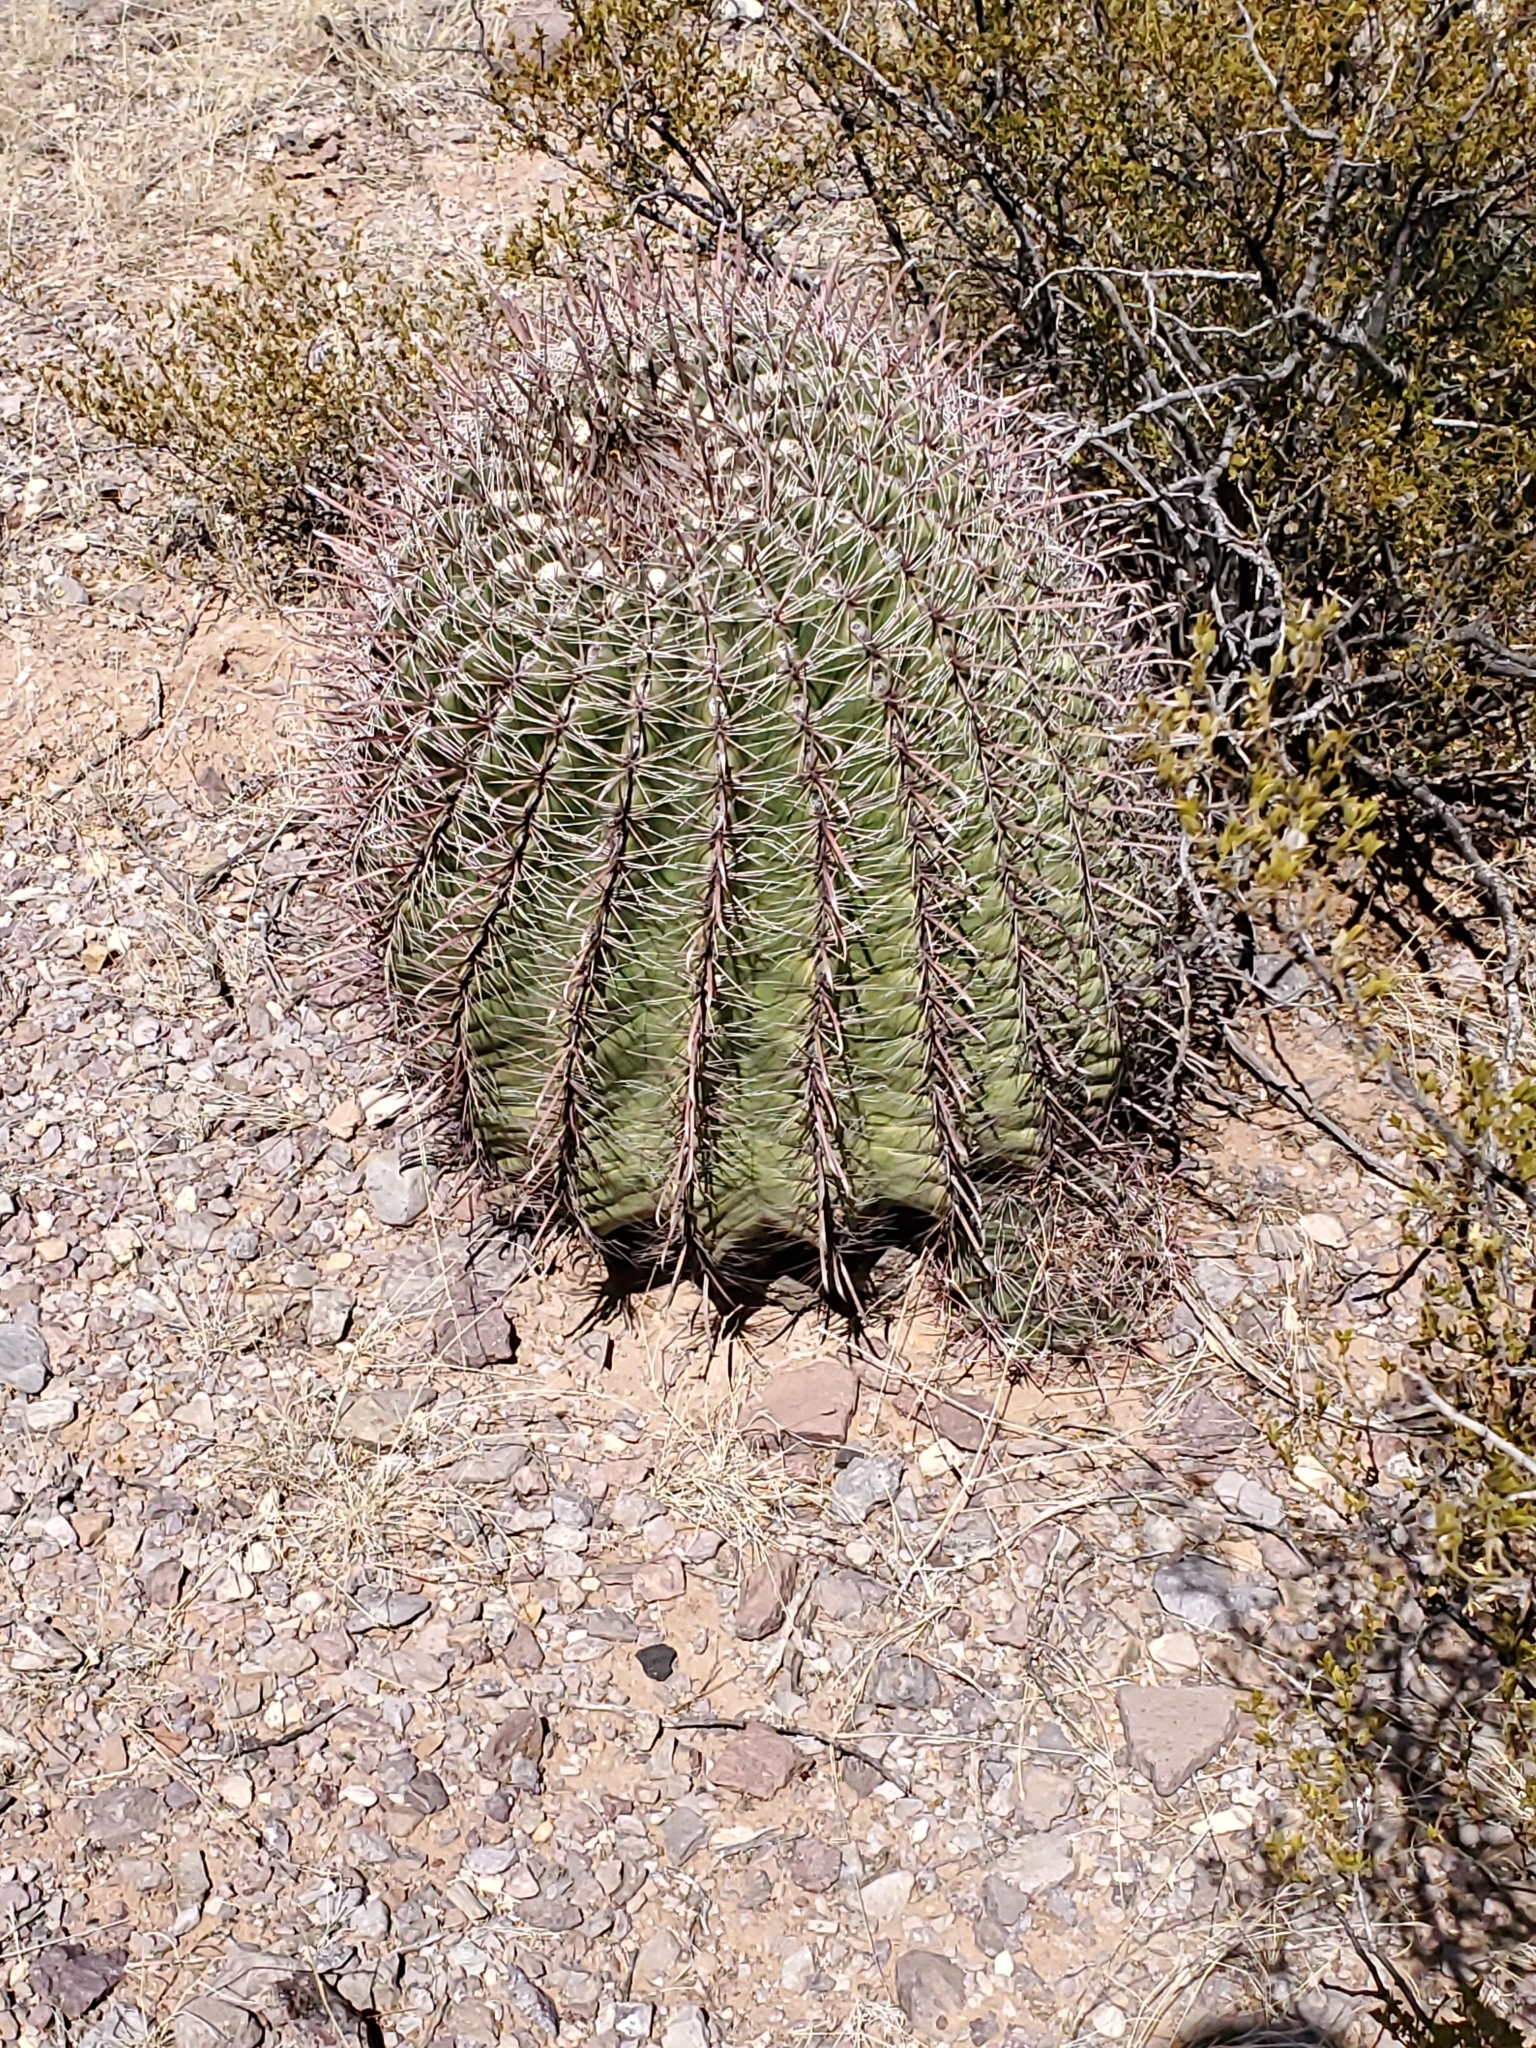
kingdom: Plantae
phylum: Tracheophyta
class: Magnoliopsida
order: Caryophyllales
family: Cactaceae
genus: Ferocactus
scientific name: Ferocactus wislizeni
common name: Candy barrel cactus
